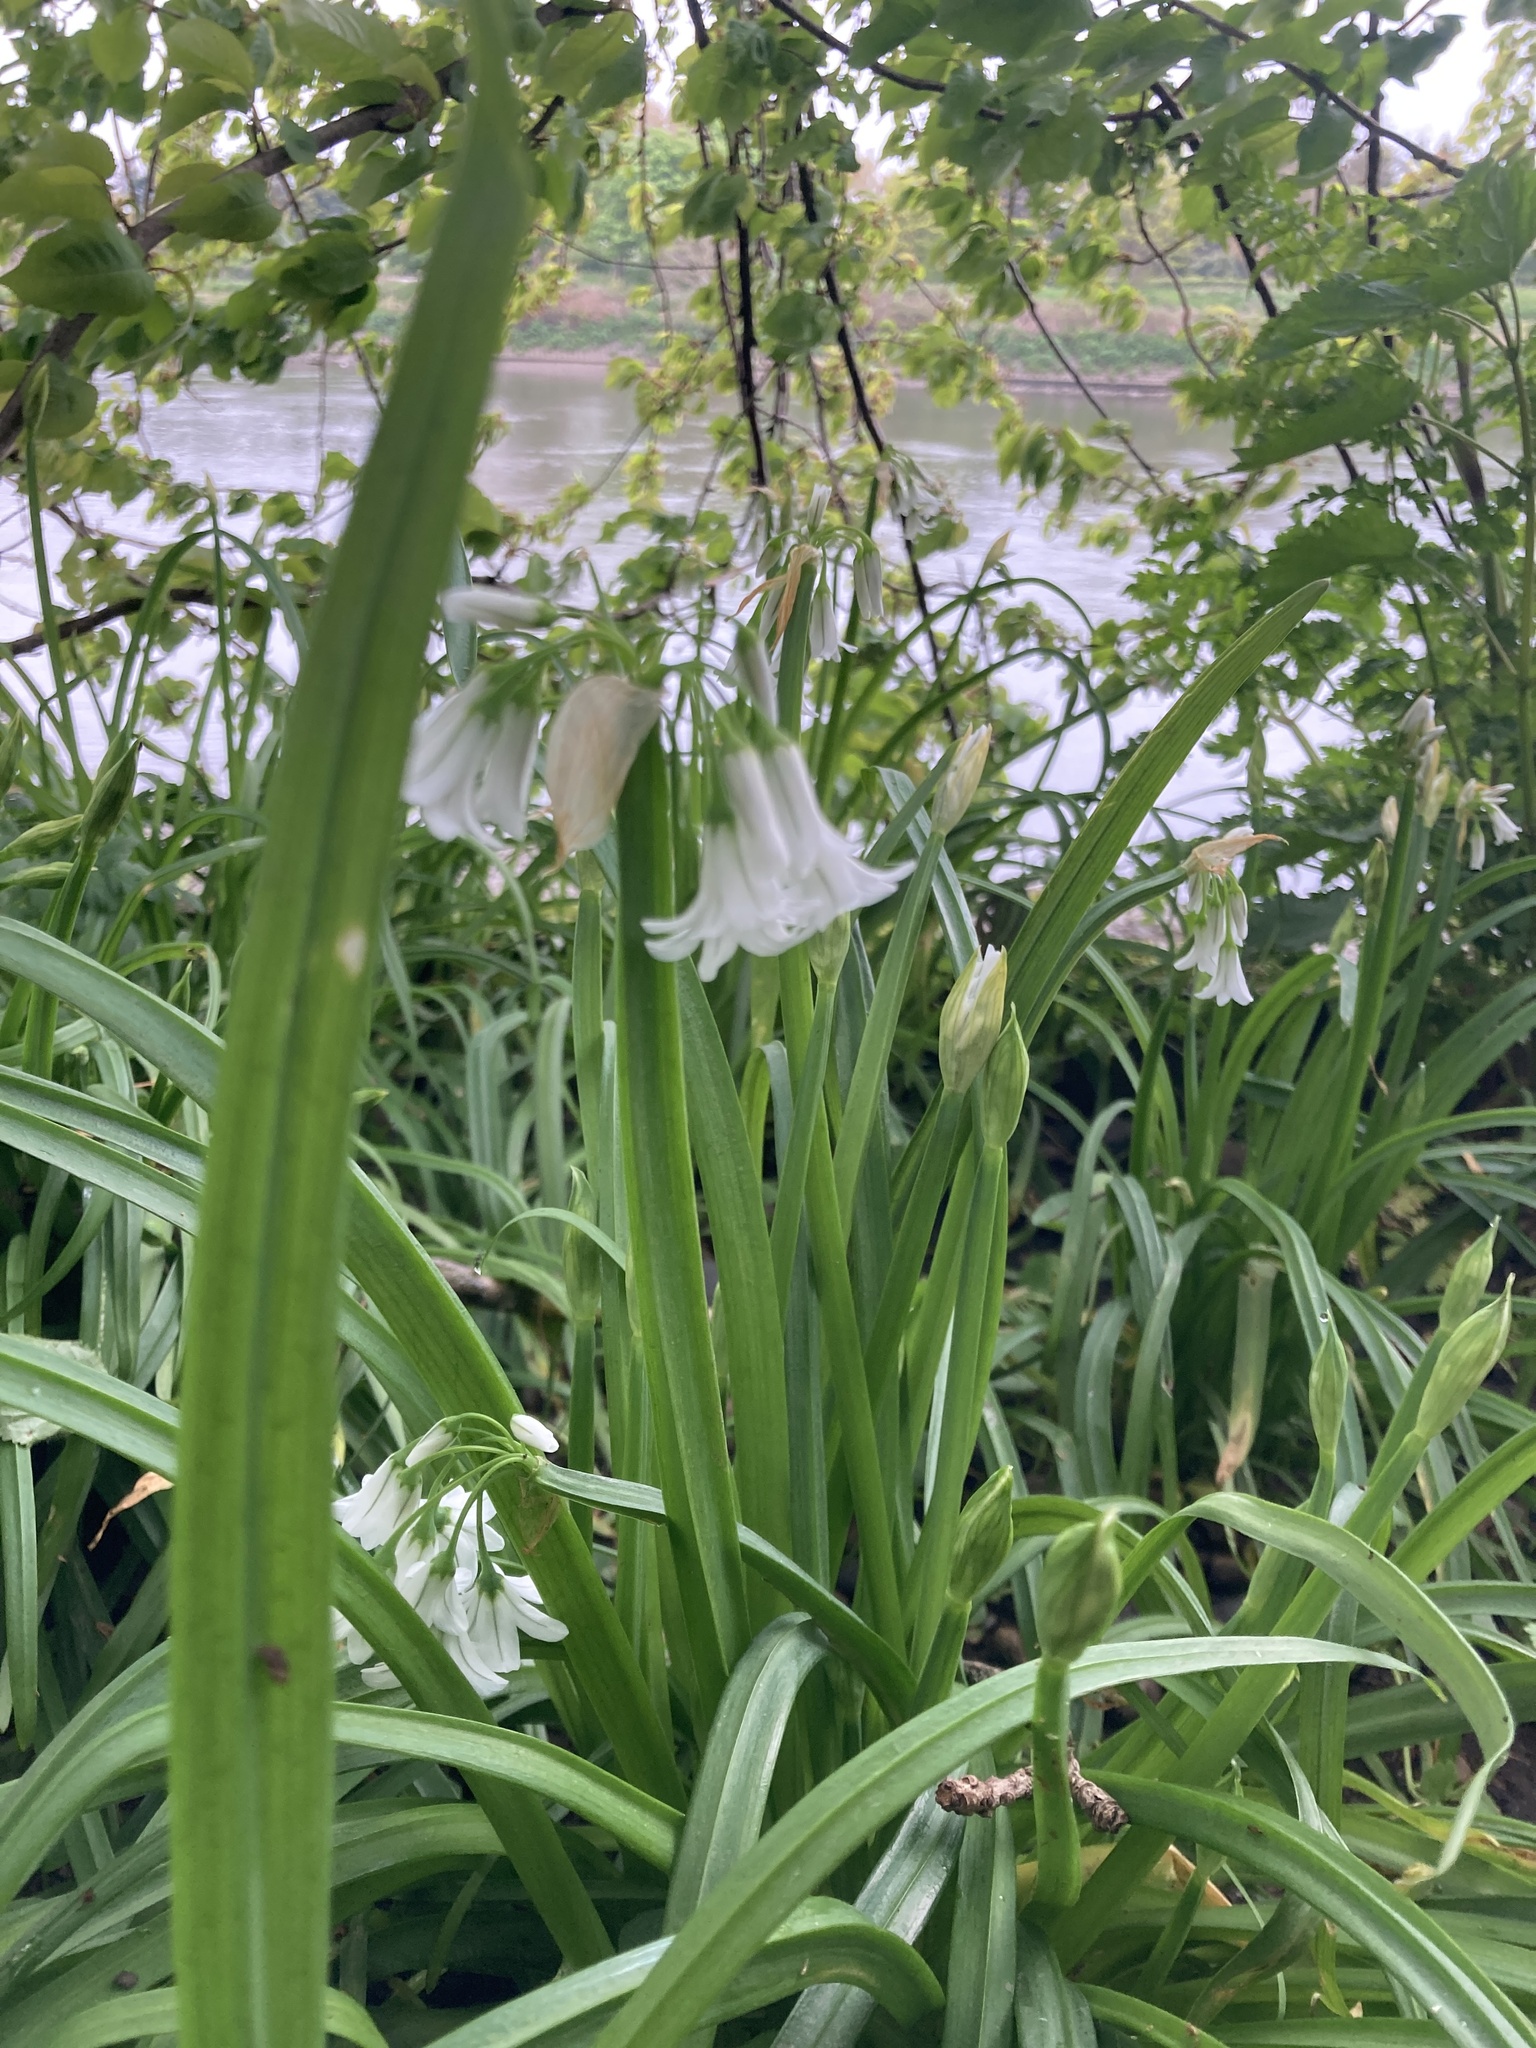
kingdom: Plantae
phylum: Tracheophyta
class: Liliopsida
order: Asparagales
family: Amaryllidaceae
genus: Allium
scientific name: Allium triquetrum
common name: Three-cornered garlic
